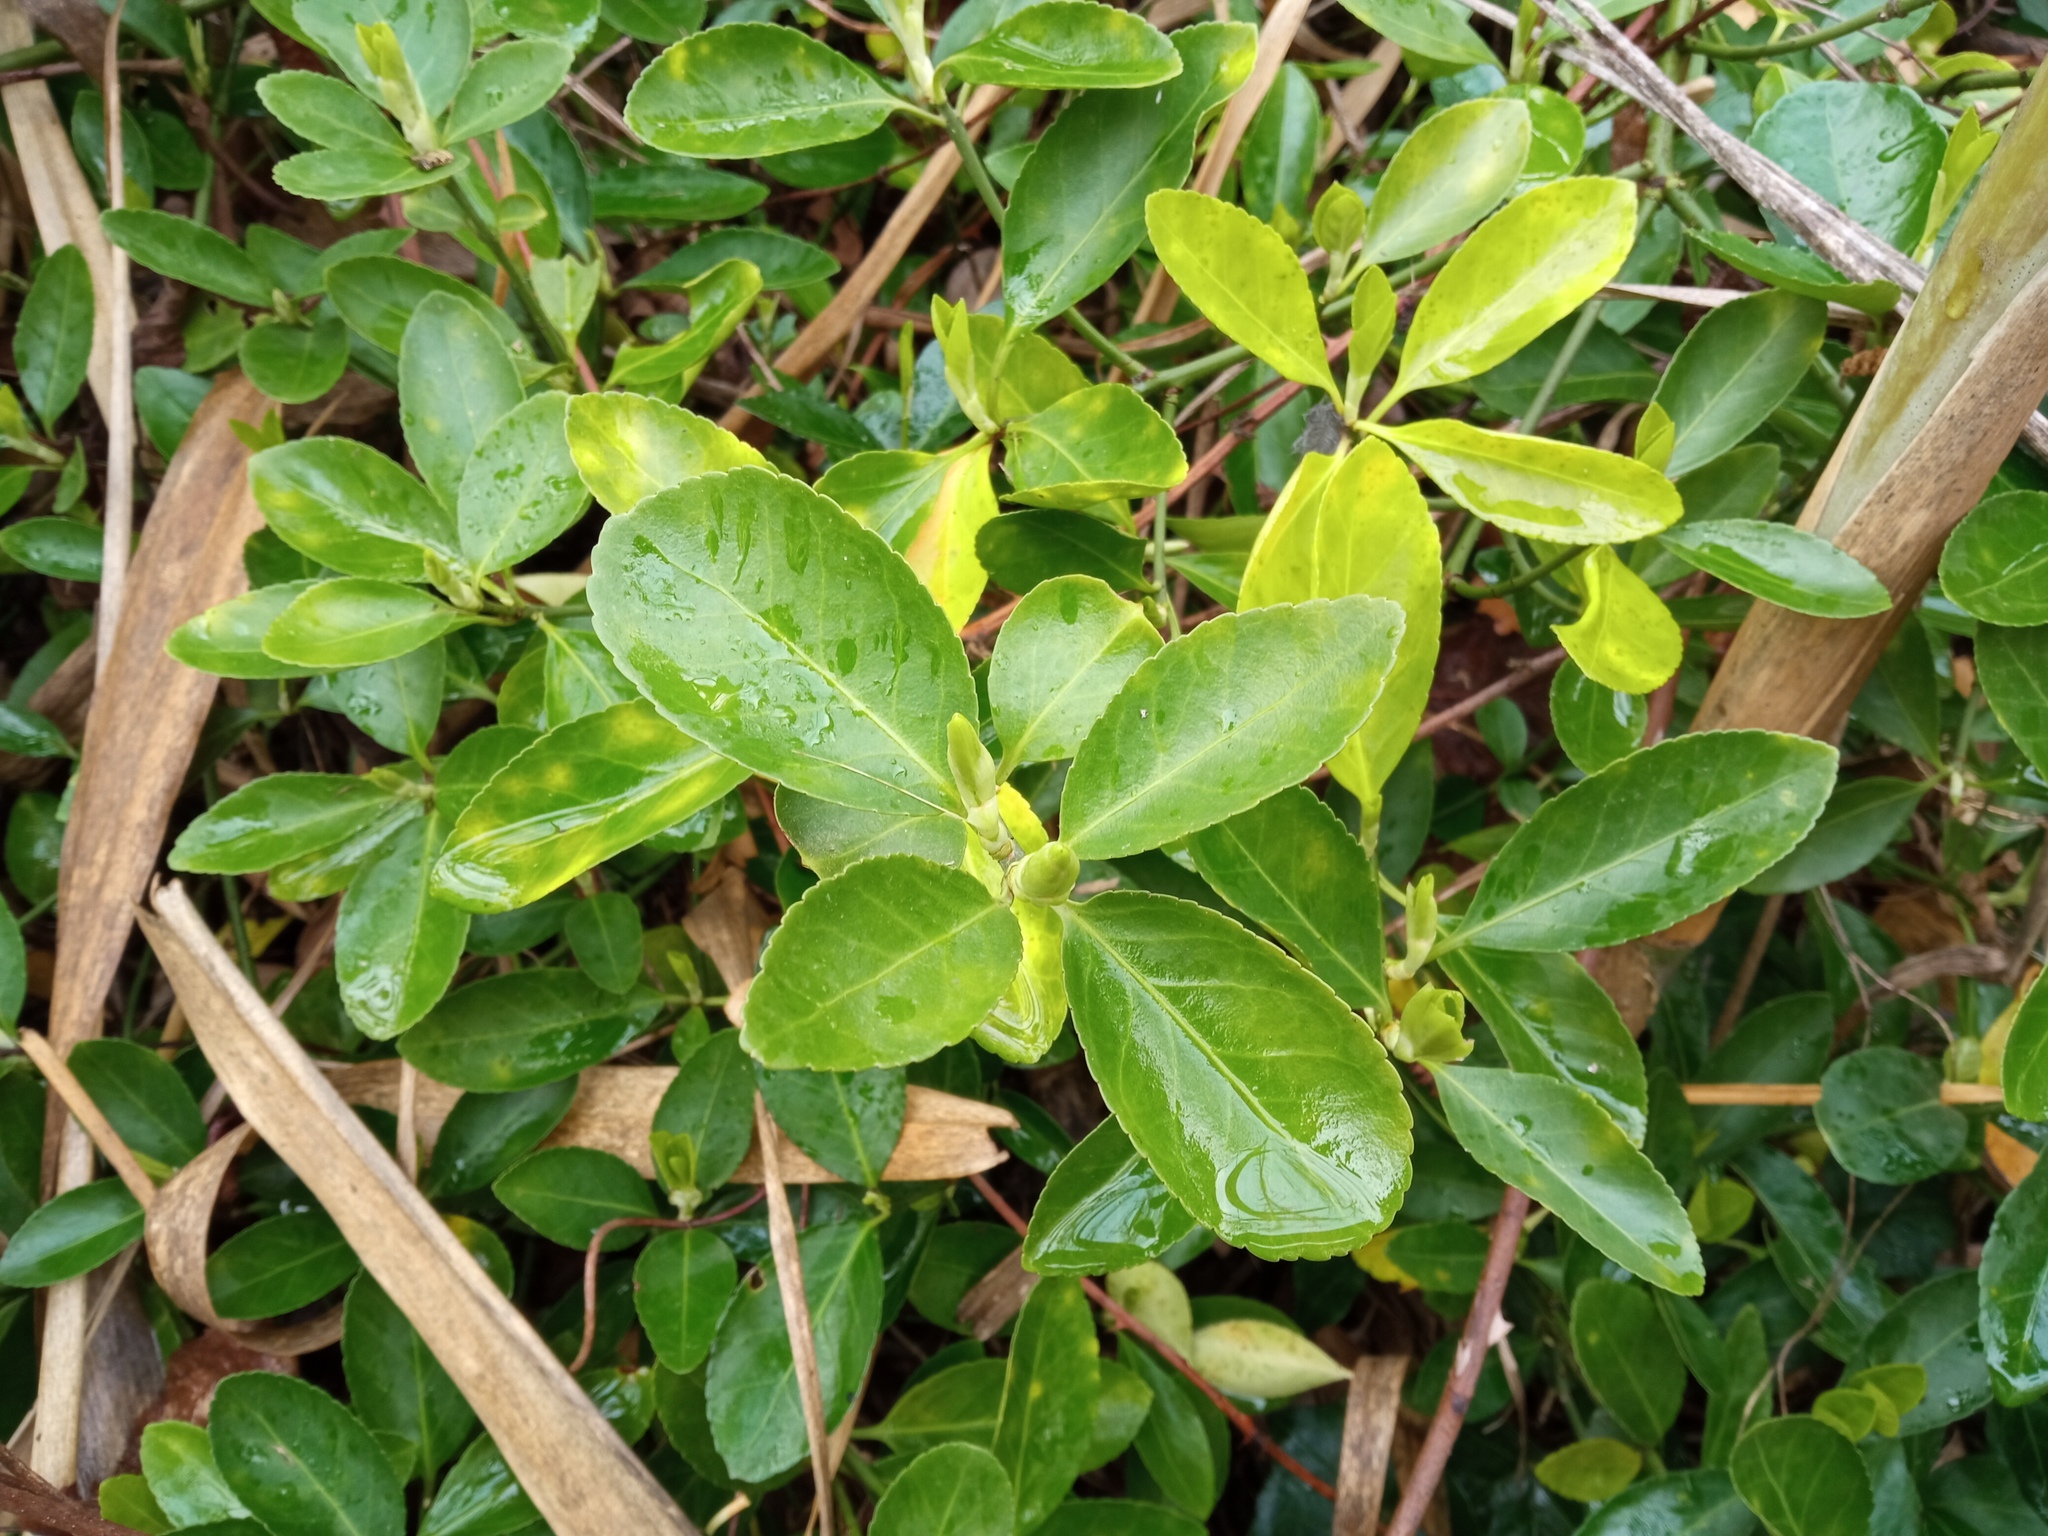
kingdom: Plantae
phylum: Tracheophyta
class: Magnoliopsida
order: Celastrales
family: Celastraceae
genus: Euonymus
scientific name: Euonymus japonicus
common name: Japanese spindletree
